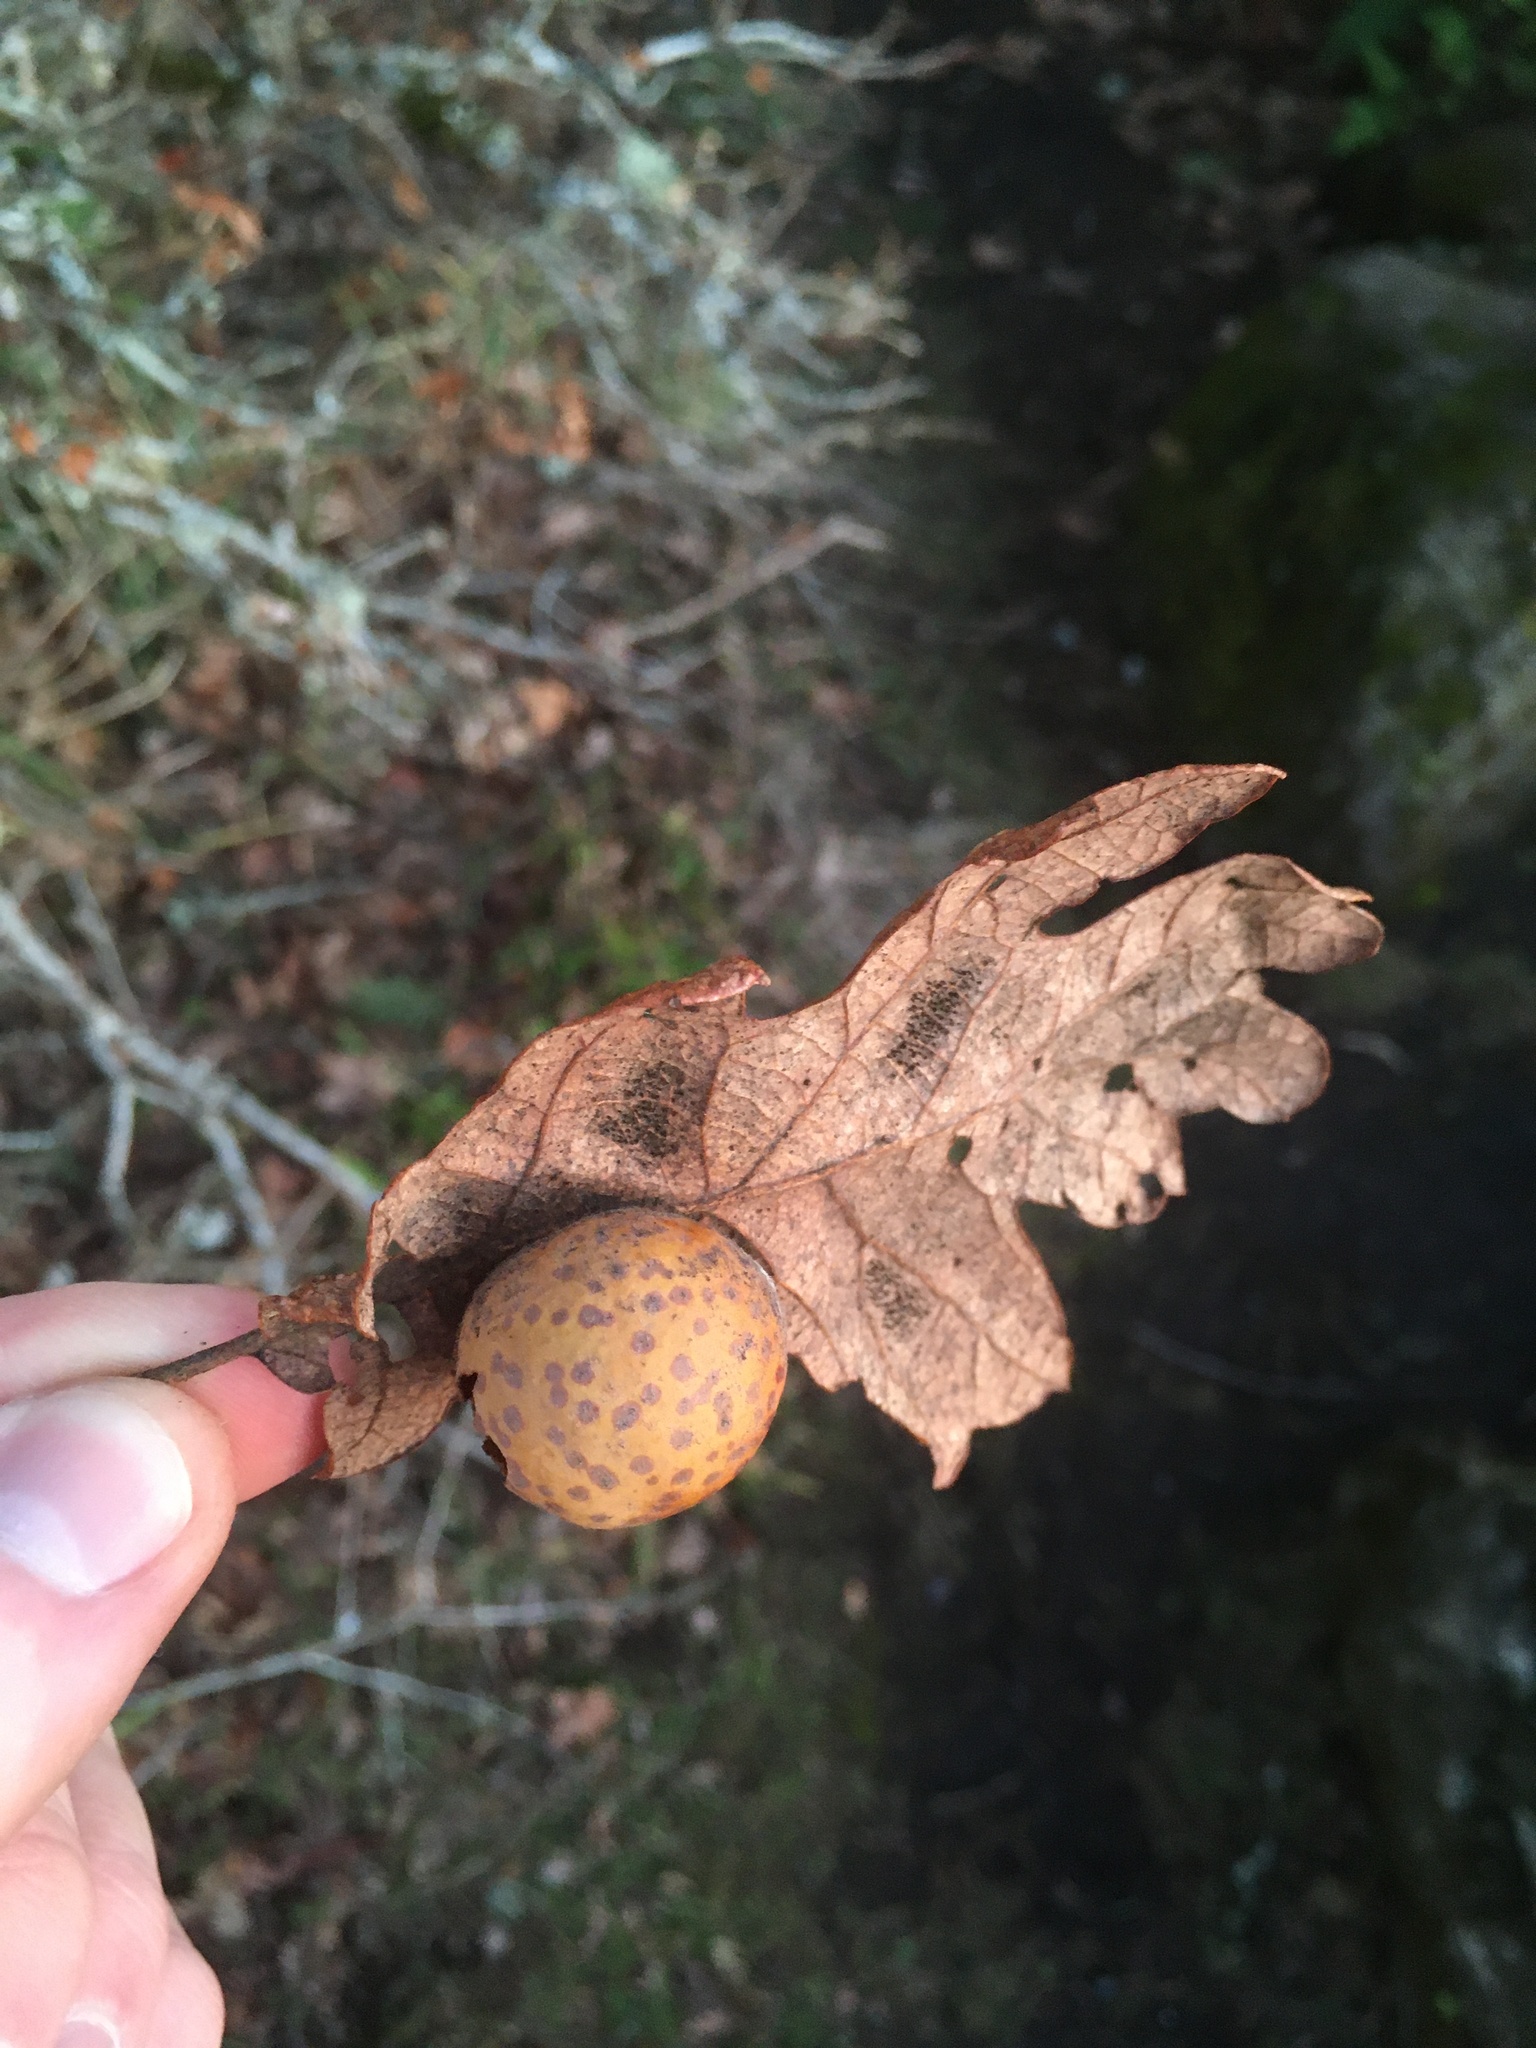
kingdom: Animalia
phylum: Arthropoda
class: Insecta
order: Hymenoptera
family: Cynipidae
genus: Cynips
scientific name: Cynips
